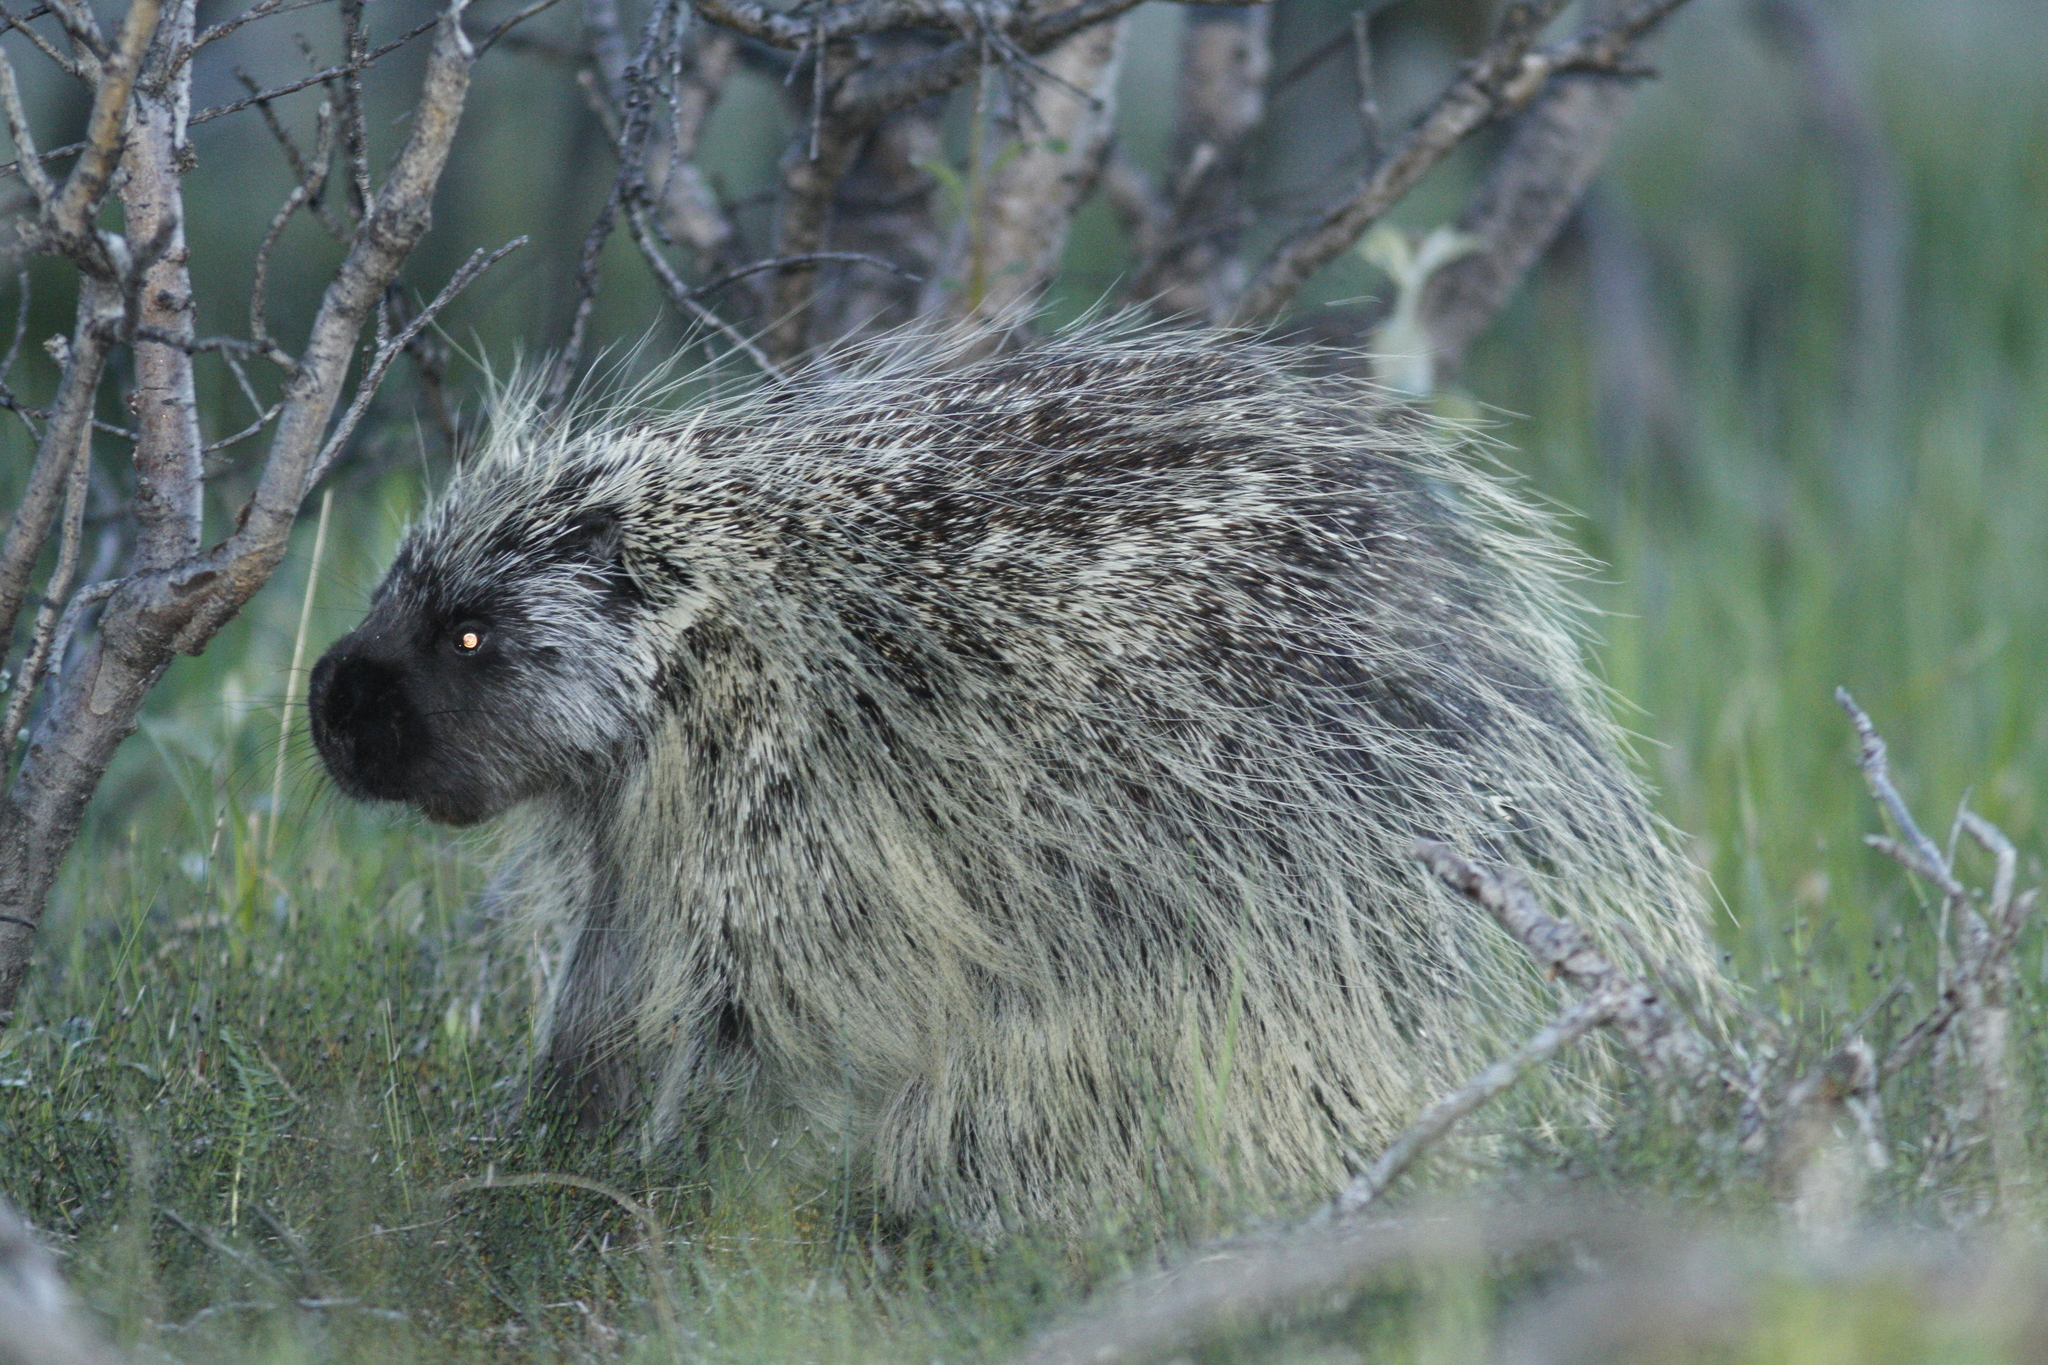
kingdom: Animalia
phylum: Chordata
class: Mammalia
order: Rodentia
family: Erethizontidae
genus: Erethizon
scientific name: Erethizon dorsatus
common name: North american porcupine
